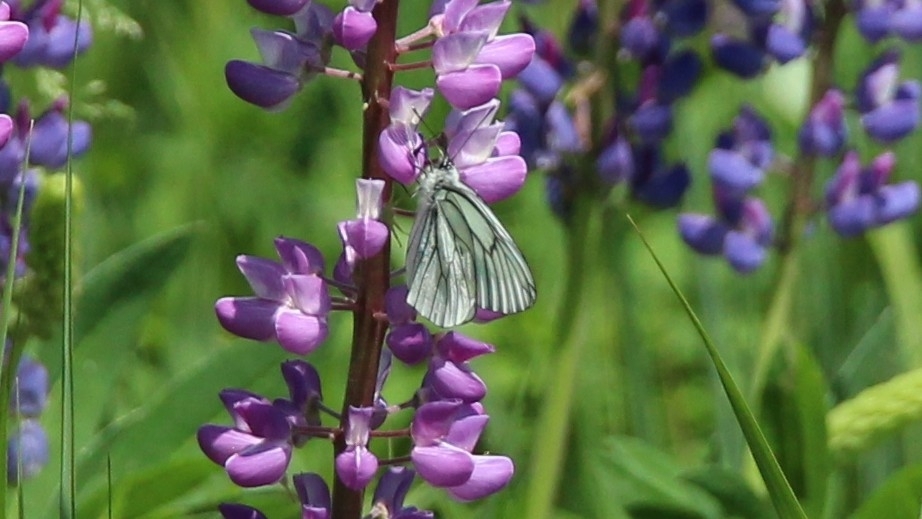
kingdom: Animalia
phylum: Arthropoda
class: Insecta
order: Lepidoptera
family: Pieridae
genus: Aporia
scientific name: Aporia crataegi
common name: Black-veined white
